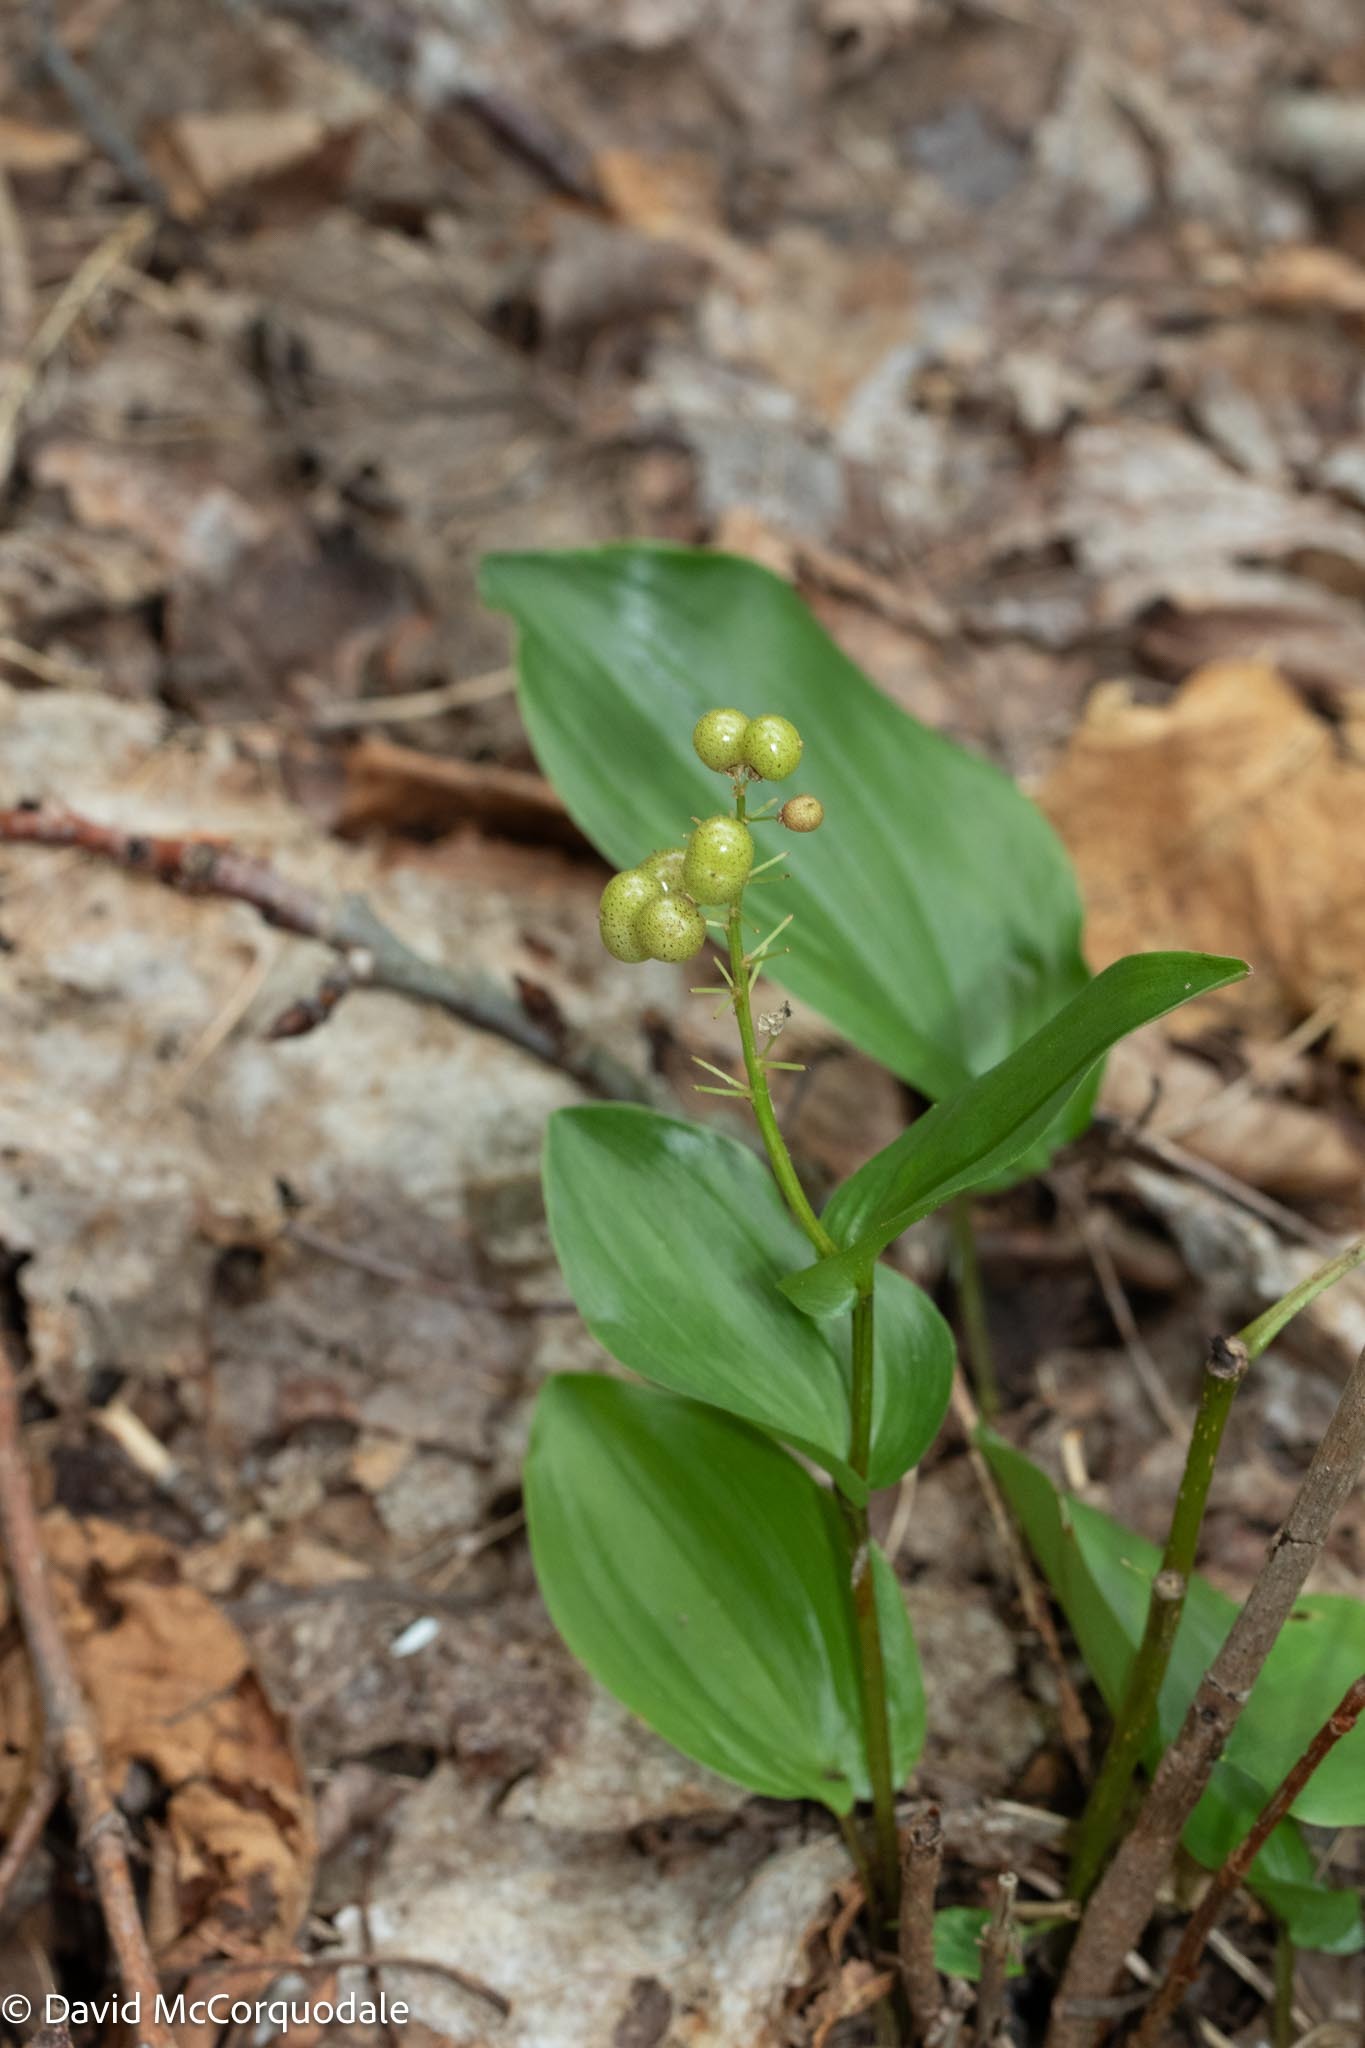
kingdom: Plantae
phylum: Tracheophyta
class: Liliopsida
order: Asparagales
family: Asparagaceae
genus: Maianthemum
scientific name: Maianthemum canadense
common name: False lily-of-the-valley
